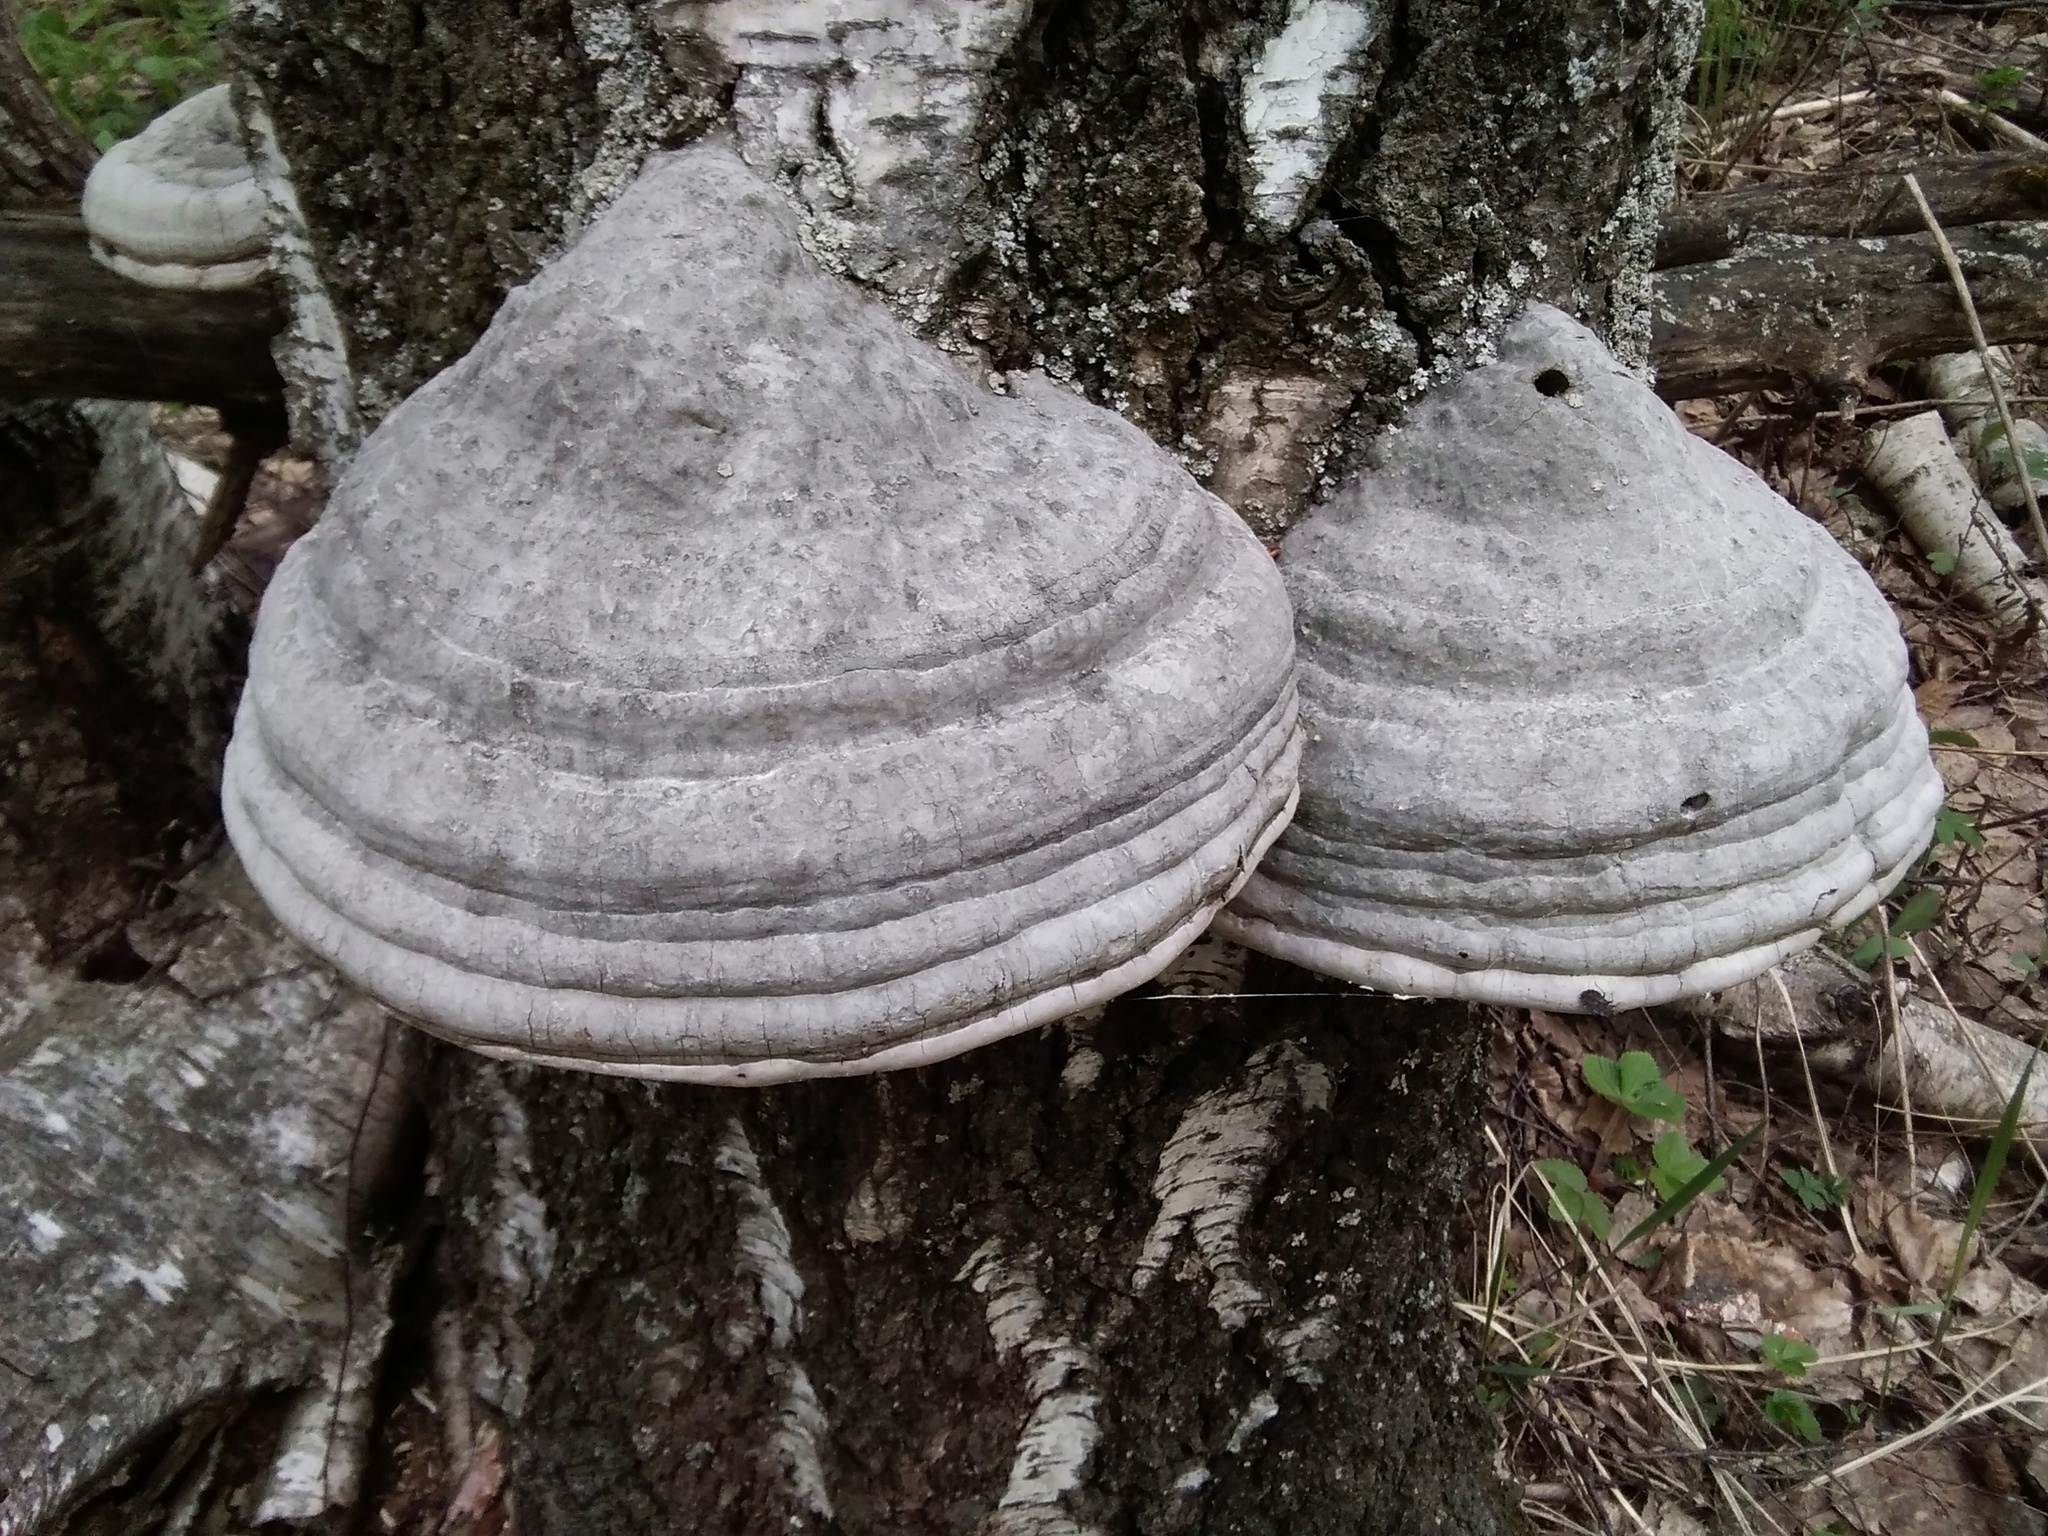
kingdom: Fungi
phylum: Basidiomycota
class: Agaricomycetes
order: Polyporales
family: Polyporaceae
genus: Fomes
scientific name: Fomes fomentarius
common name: Hoof fungus
